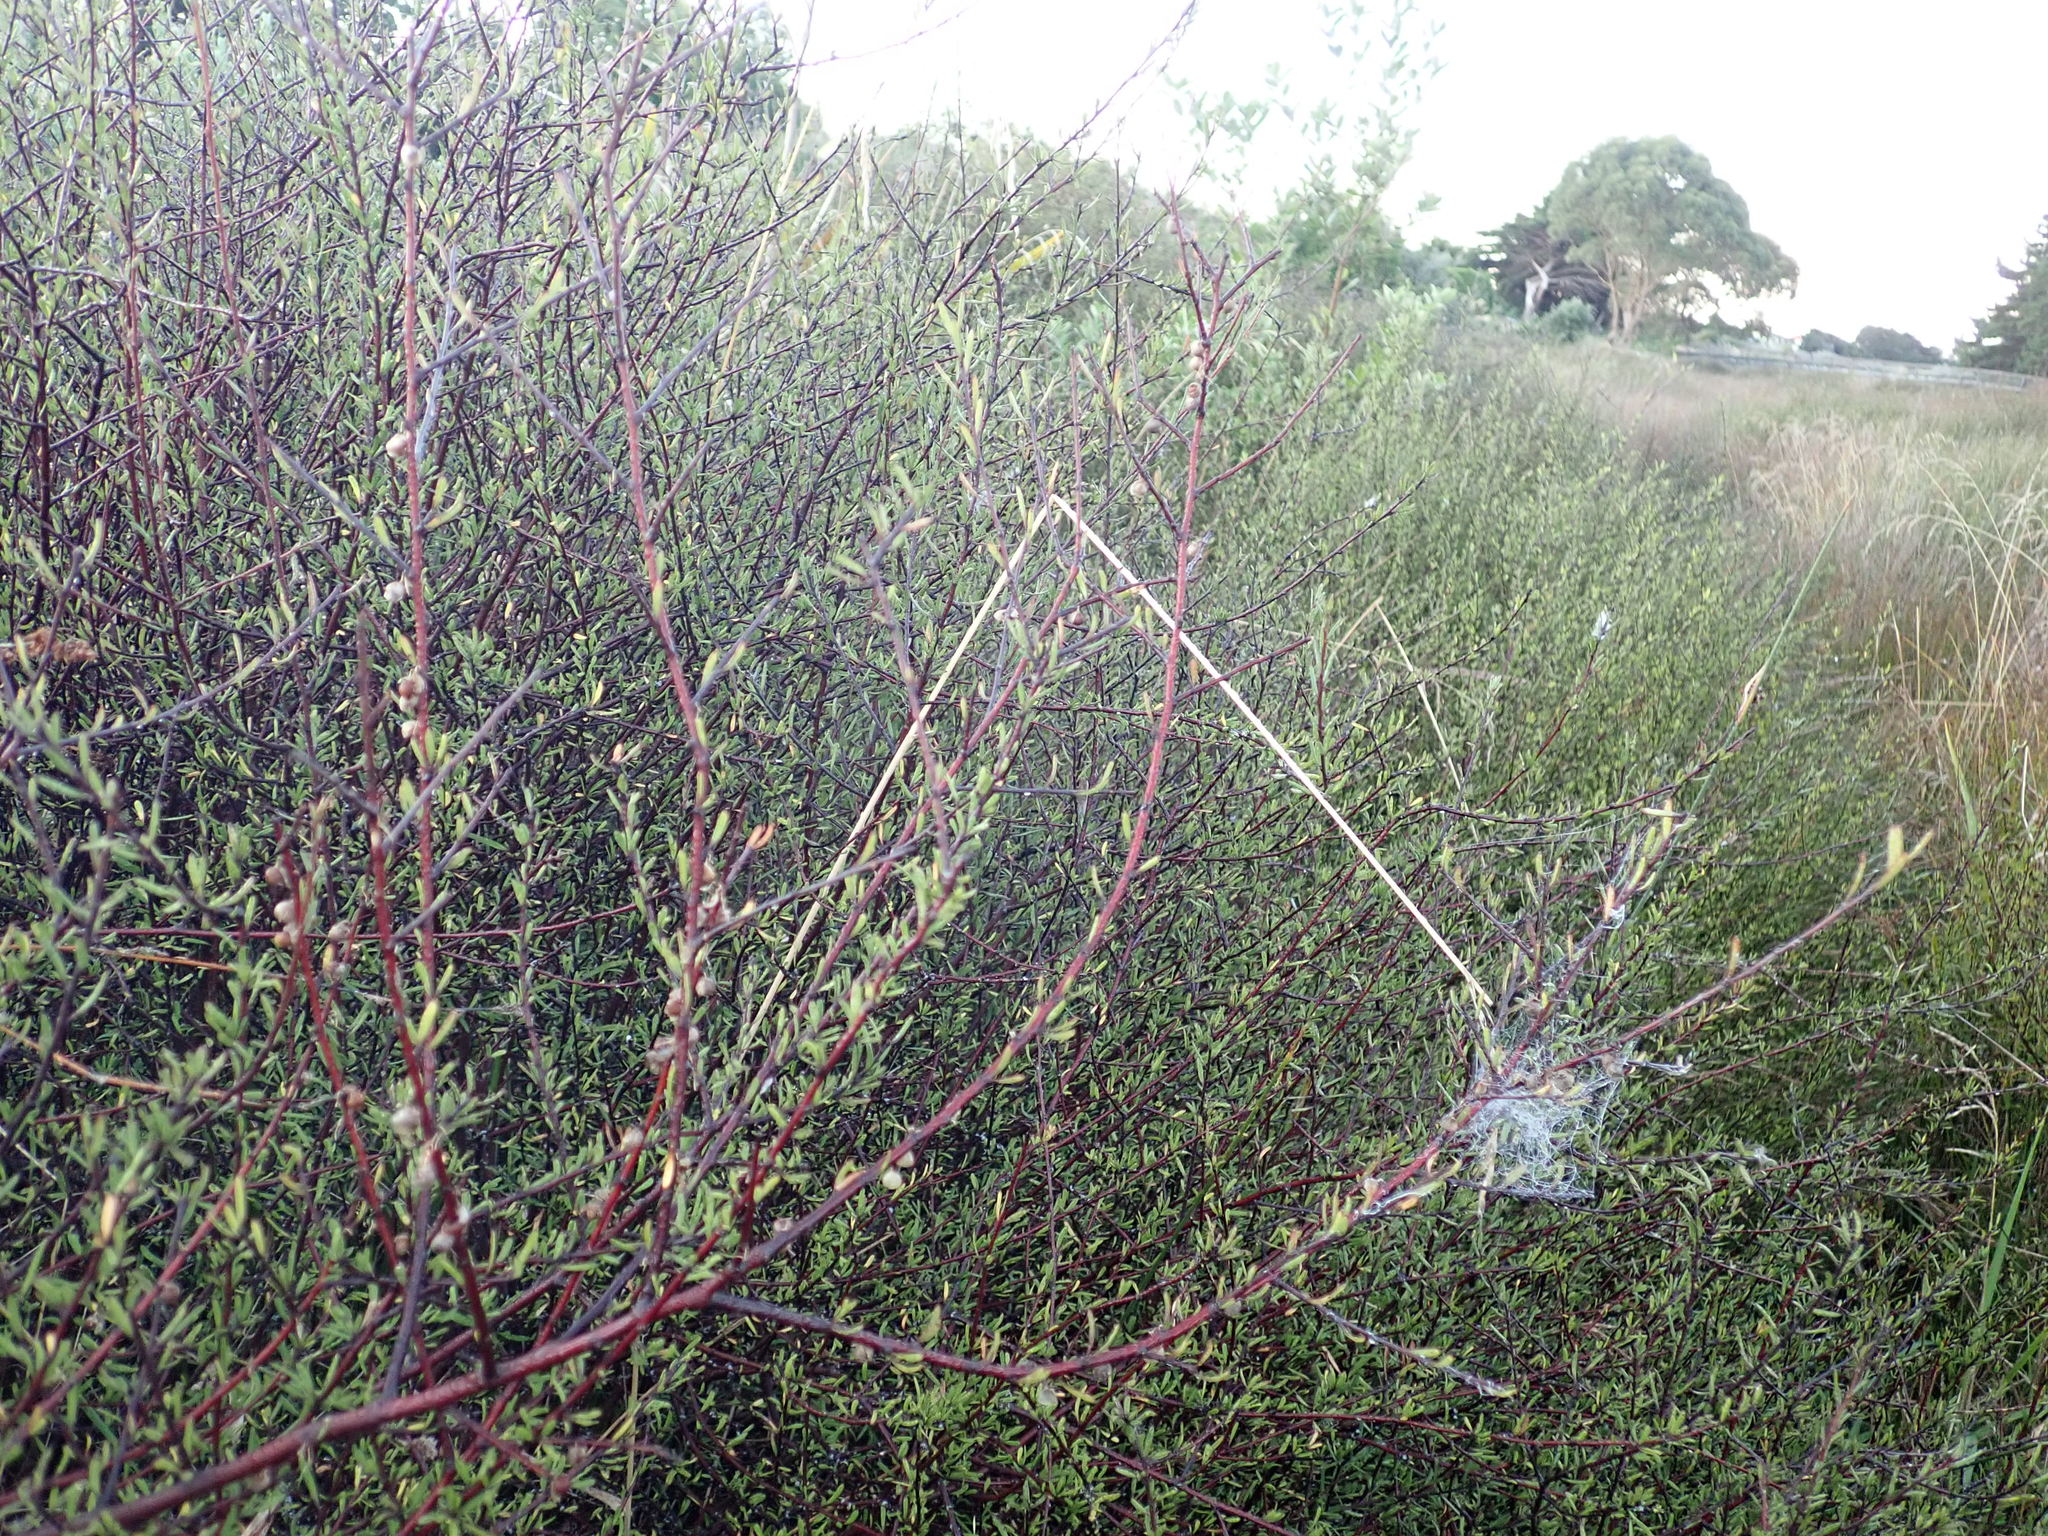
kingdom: Plantae
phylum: Tracheophyta
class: Magnoliopsida
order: Malvales
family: Malvaceae
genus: Plagianthus
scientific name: Plagianthus divaricatus
